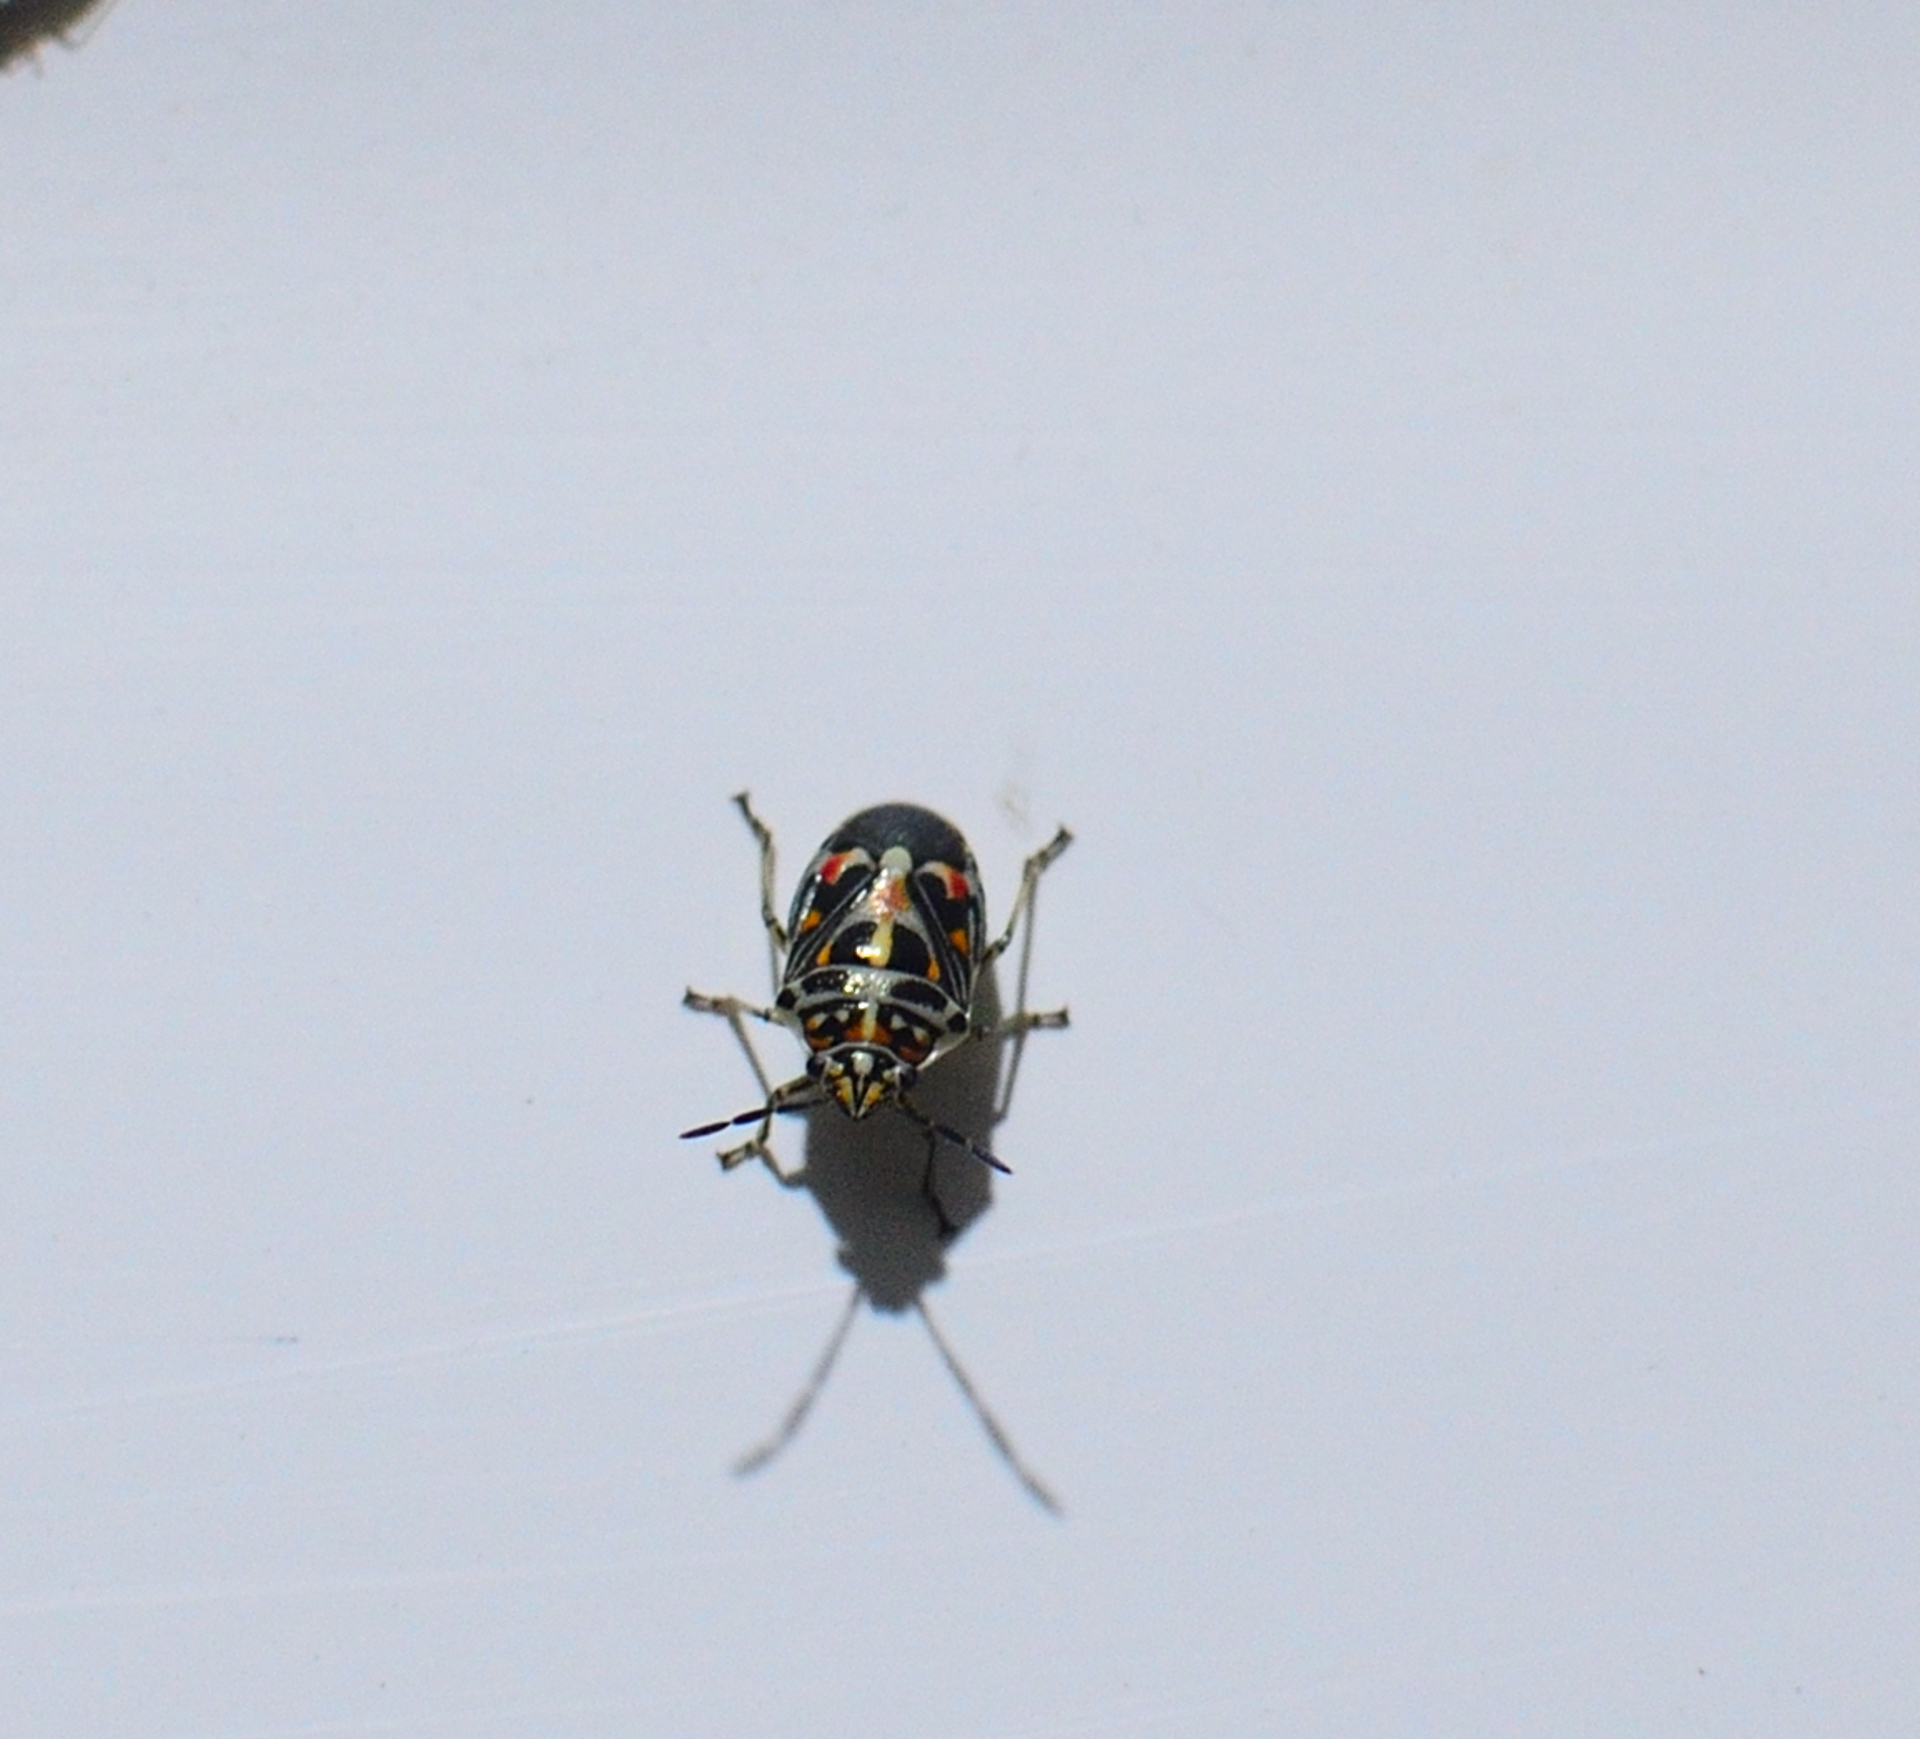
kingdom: Animalia
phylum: Arthropoda
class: Insecta
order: Hemiptera
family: Pentatomidae
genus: Stenozygum
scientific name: Stenozygum speciosum
